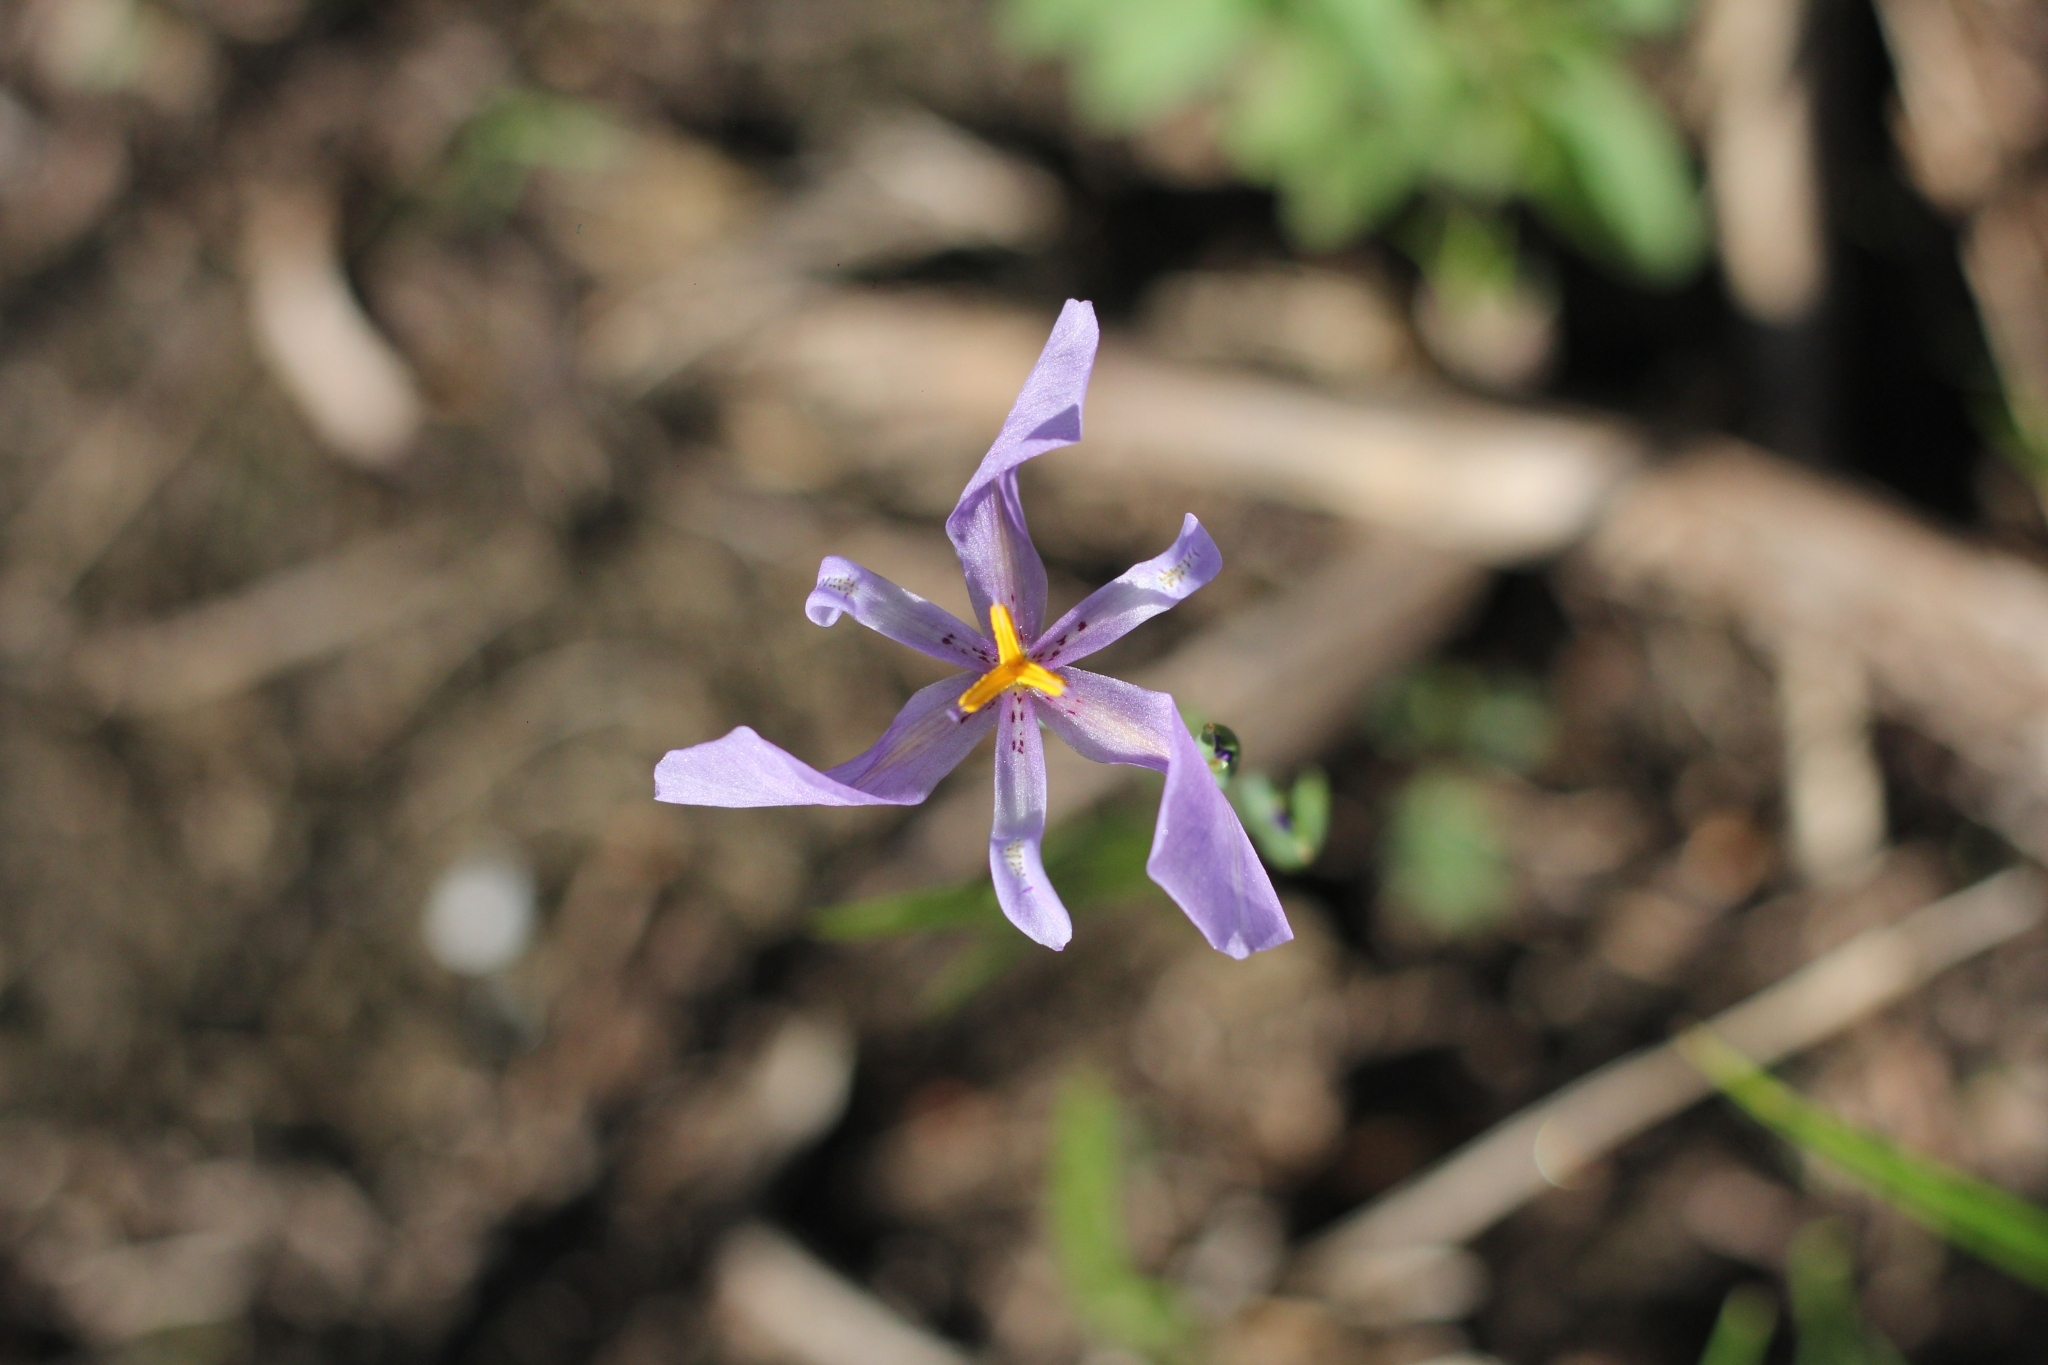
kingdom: Plantae
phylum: Tracheophyta
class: Liliopsida
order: Asparagales
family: Iridaceae
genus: Calydorea
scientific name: Calydorea amabilis
